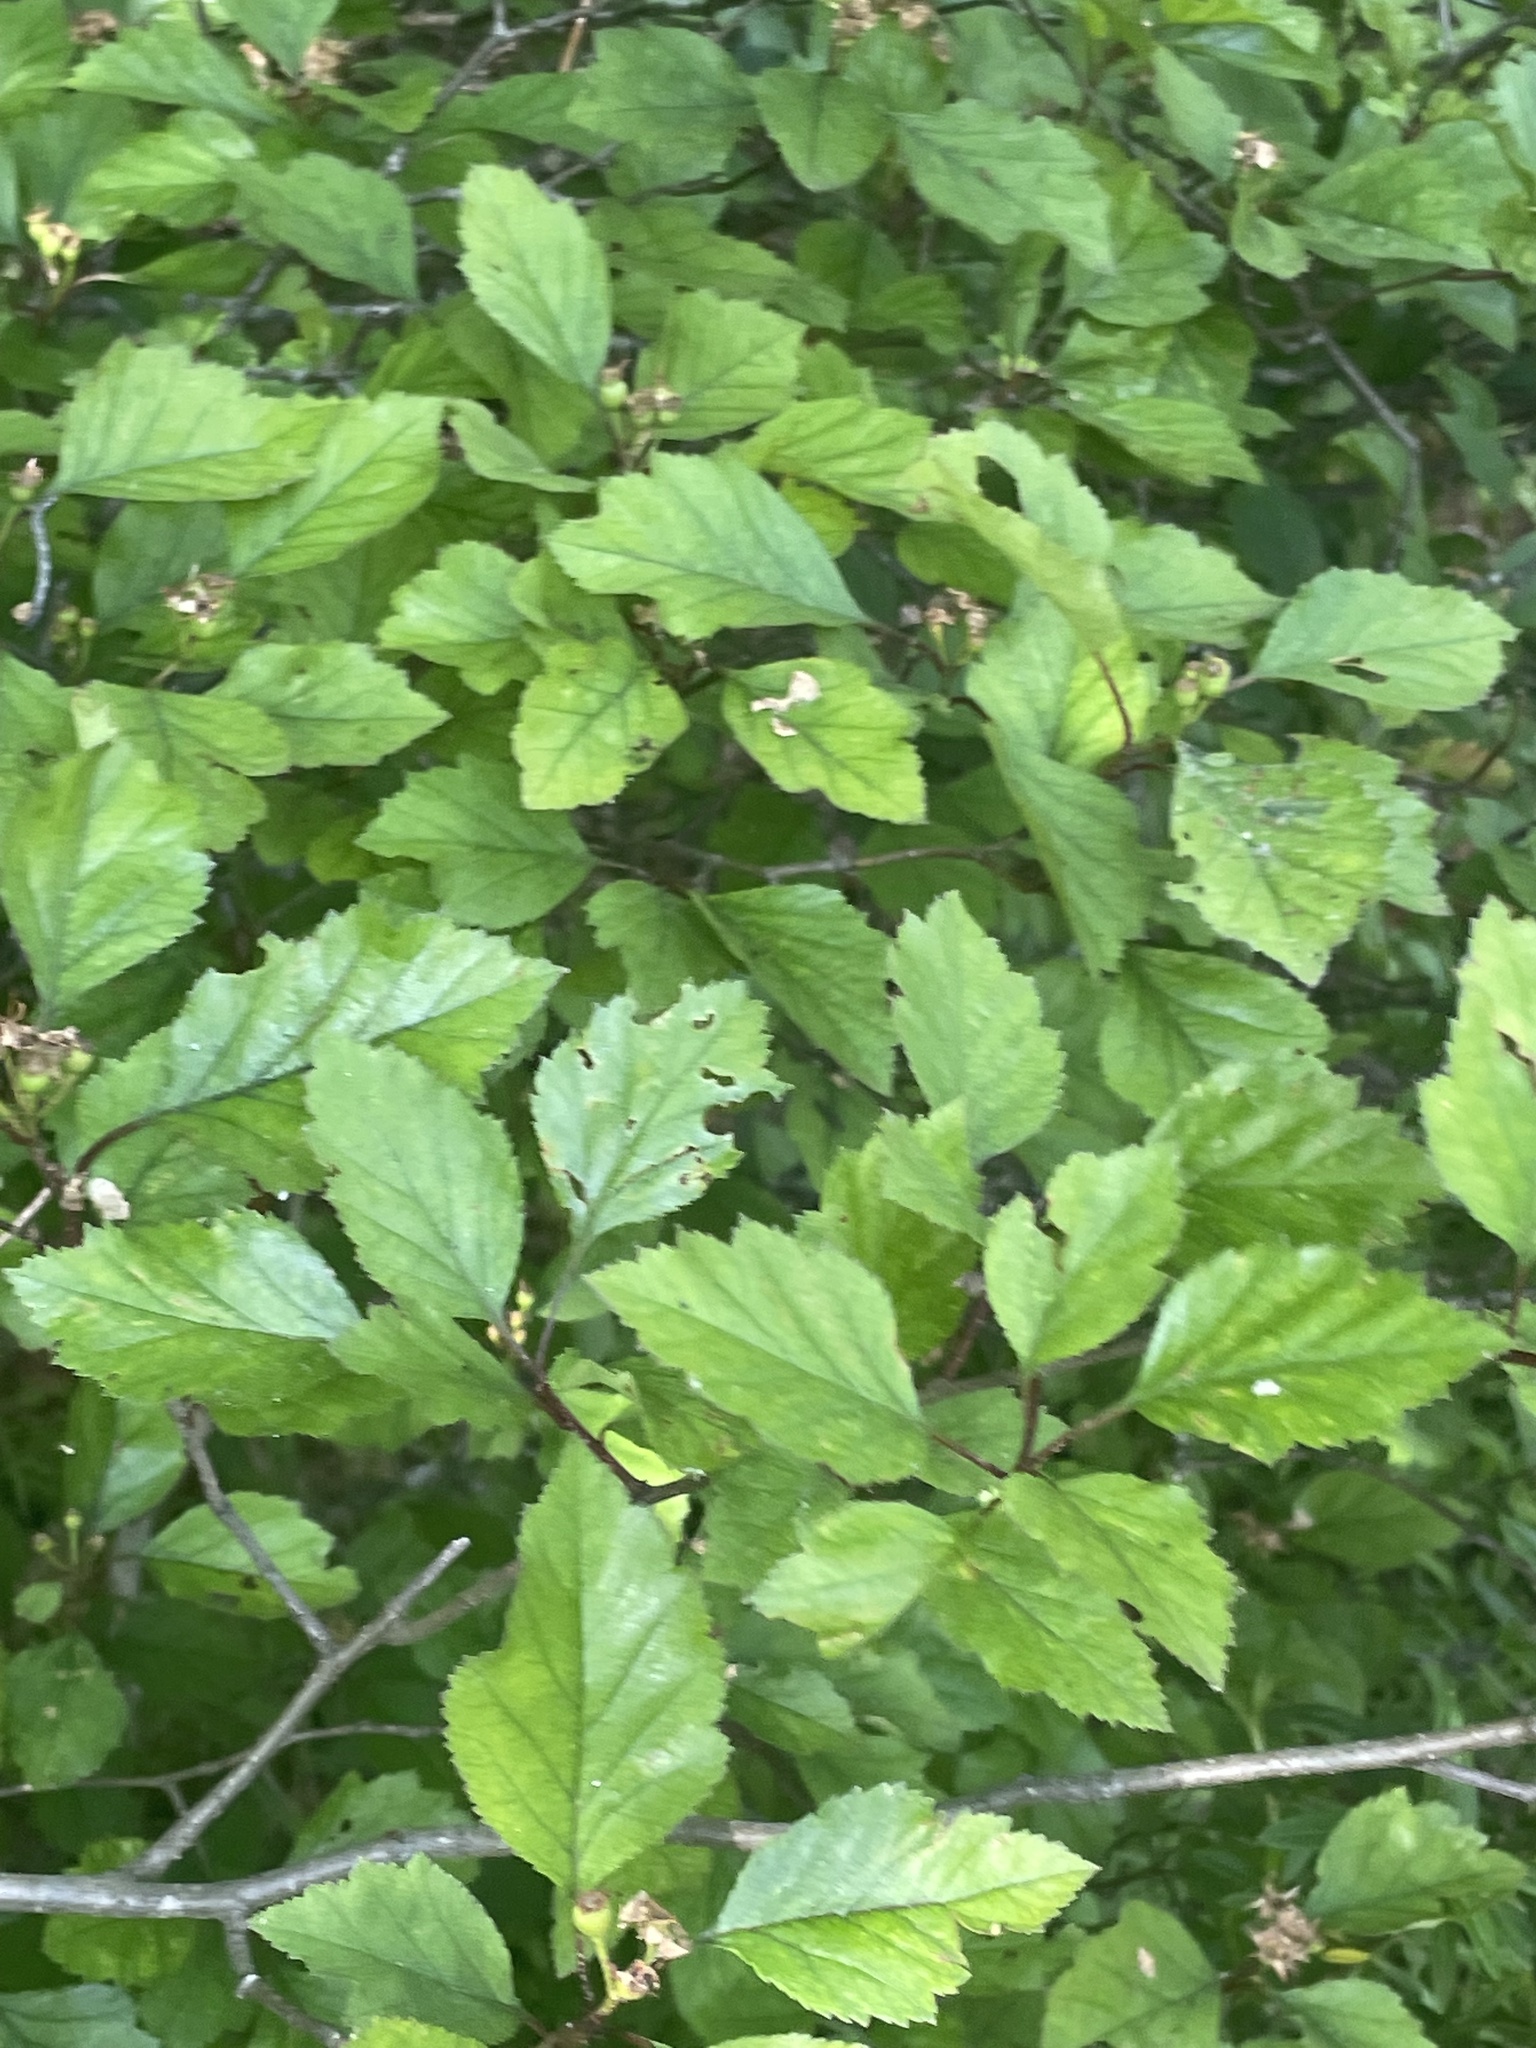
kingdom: Plantae
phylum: Tracheophyta
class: Magnoliopsida
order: Rosales
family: Rosaceae
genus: Crataegus
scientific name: Crataegus iracunda
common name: Stolon-bearing hawthorn
